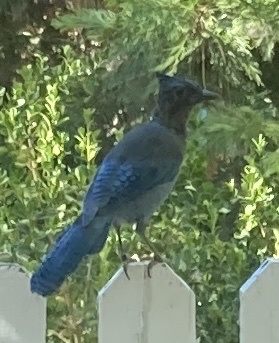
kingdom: Animalia
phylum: Chordata
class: Aves
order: Passeriformes
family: Corvidae
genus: Cyanocitta
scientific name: Cyanocitta stelleri
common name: Steller's jay
